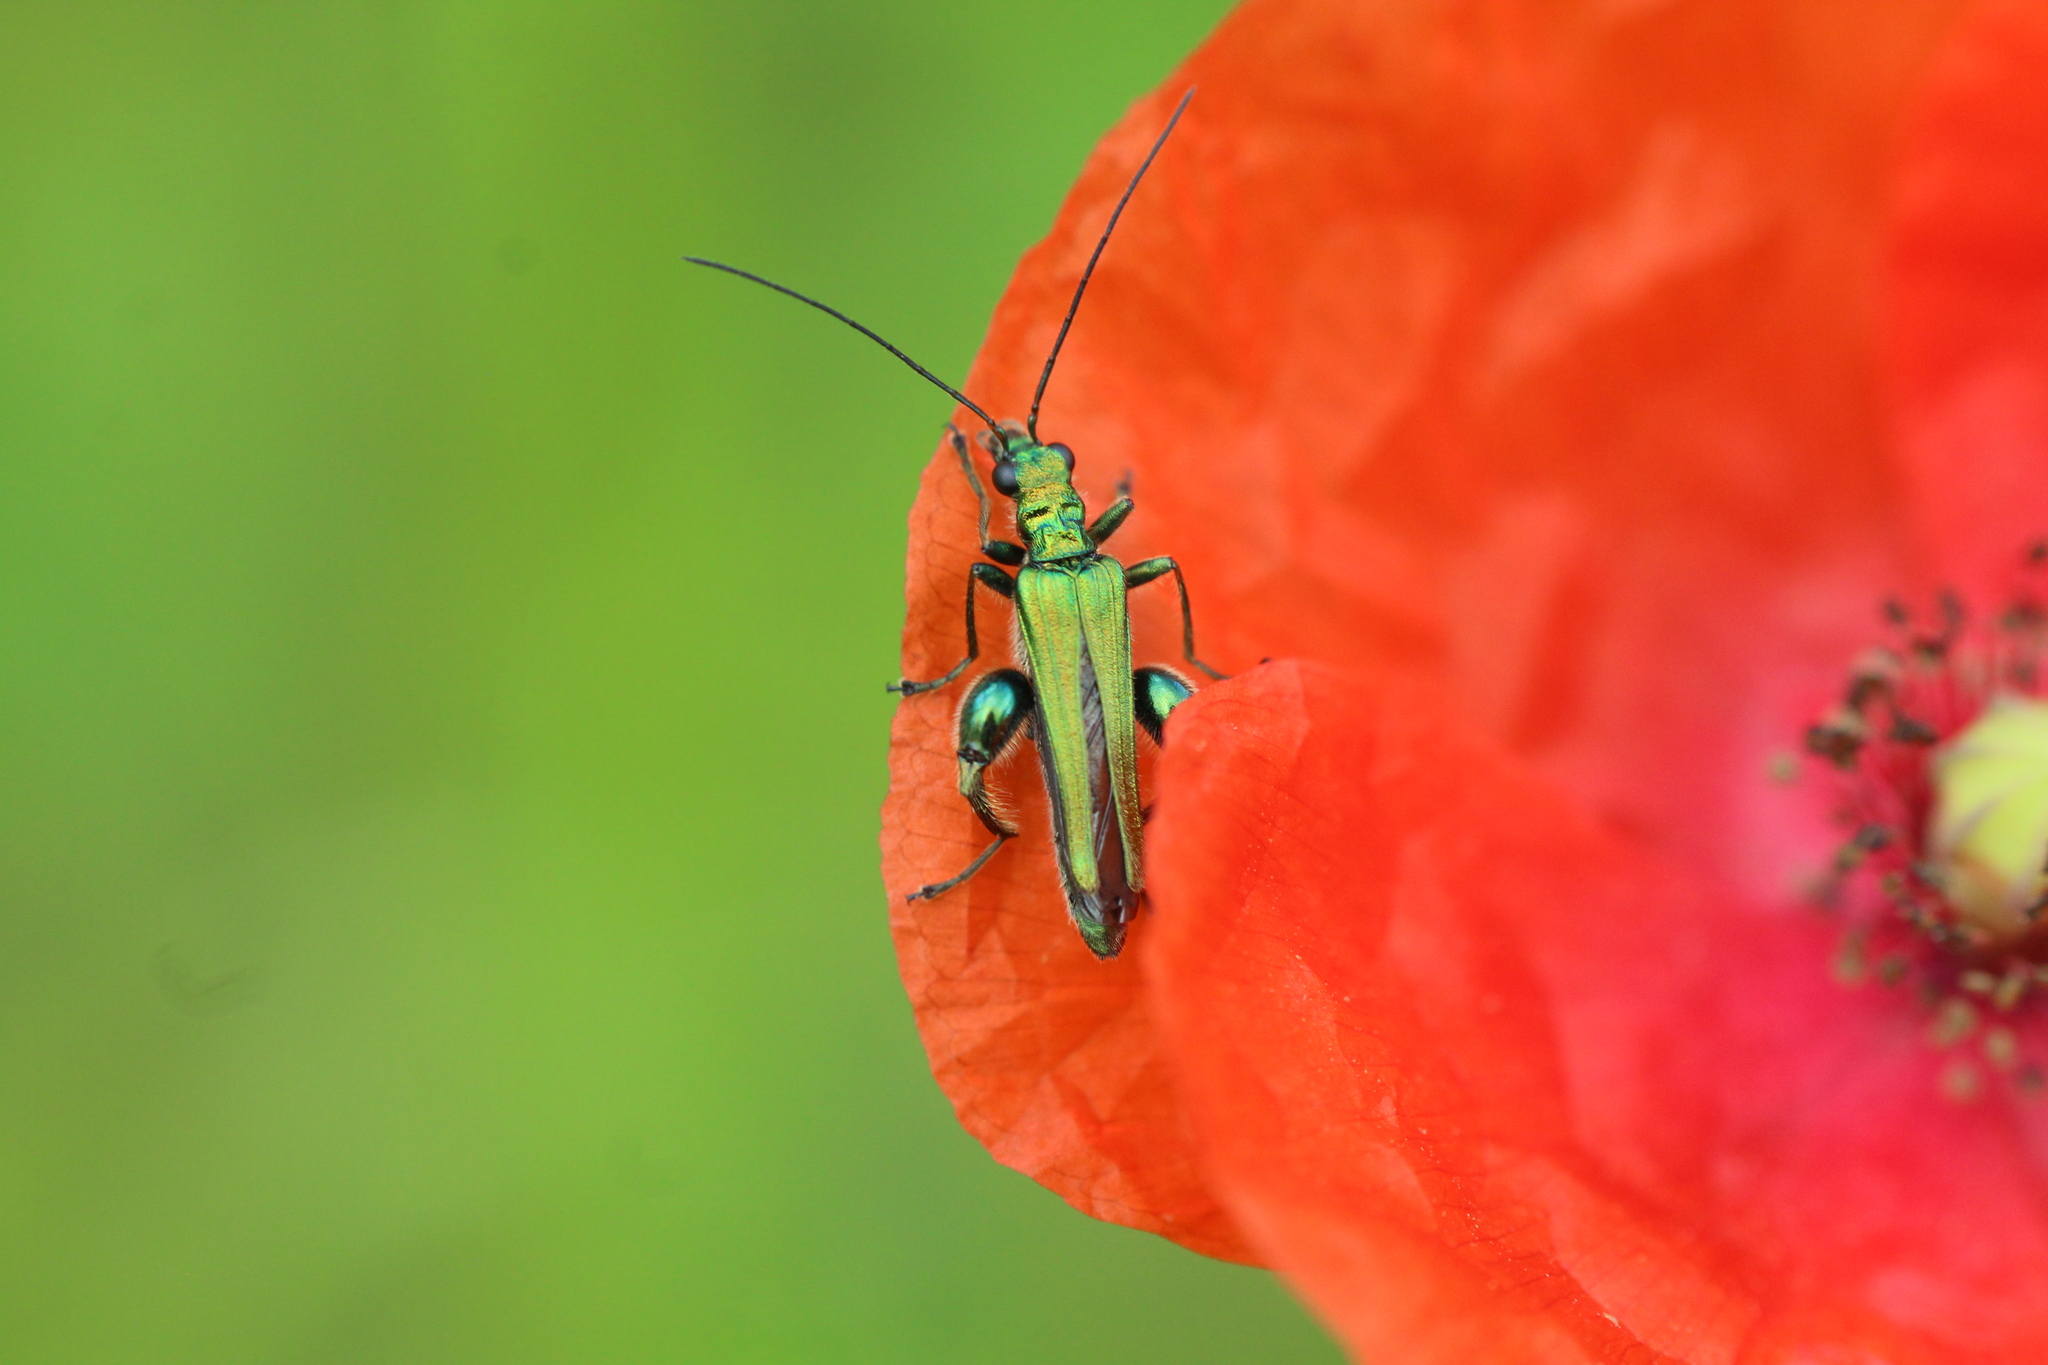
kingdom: Animalia
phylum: Arthropoda
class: Insecta
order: Coleoptera
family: Oedemeridae
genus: Oedemera
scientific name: Oedemera nobilis
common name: Swollen-thighed beetle
